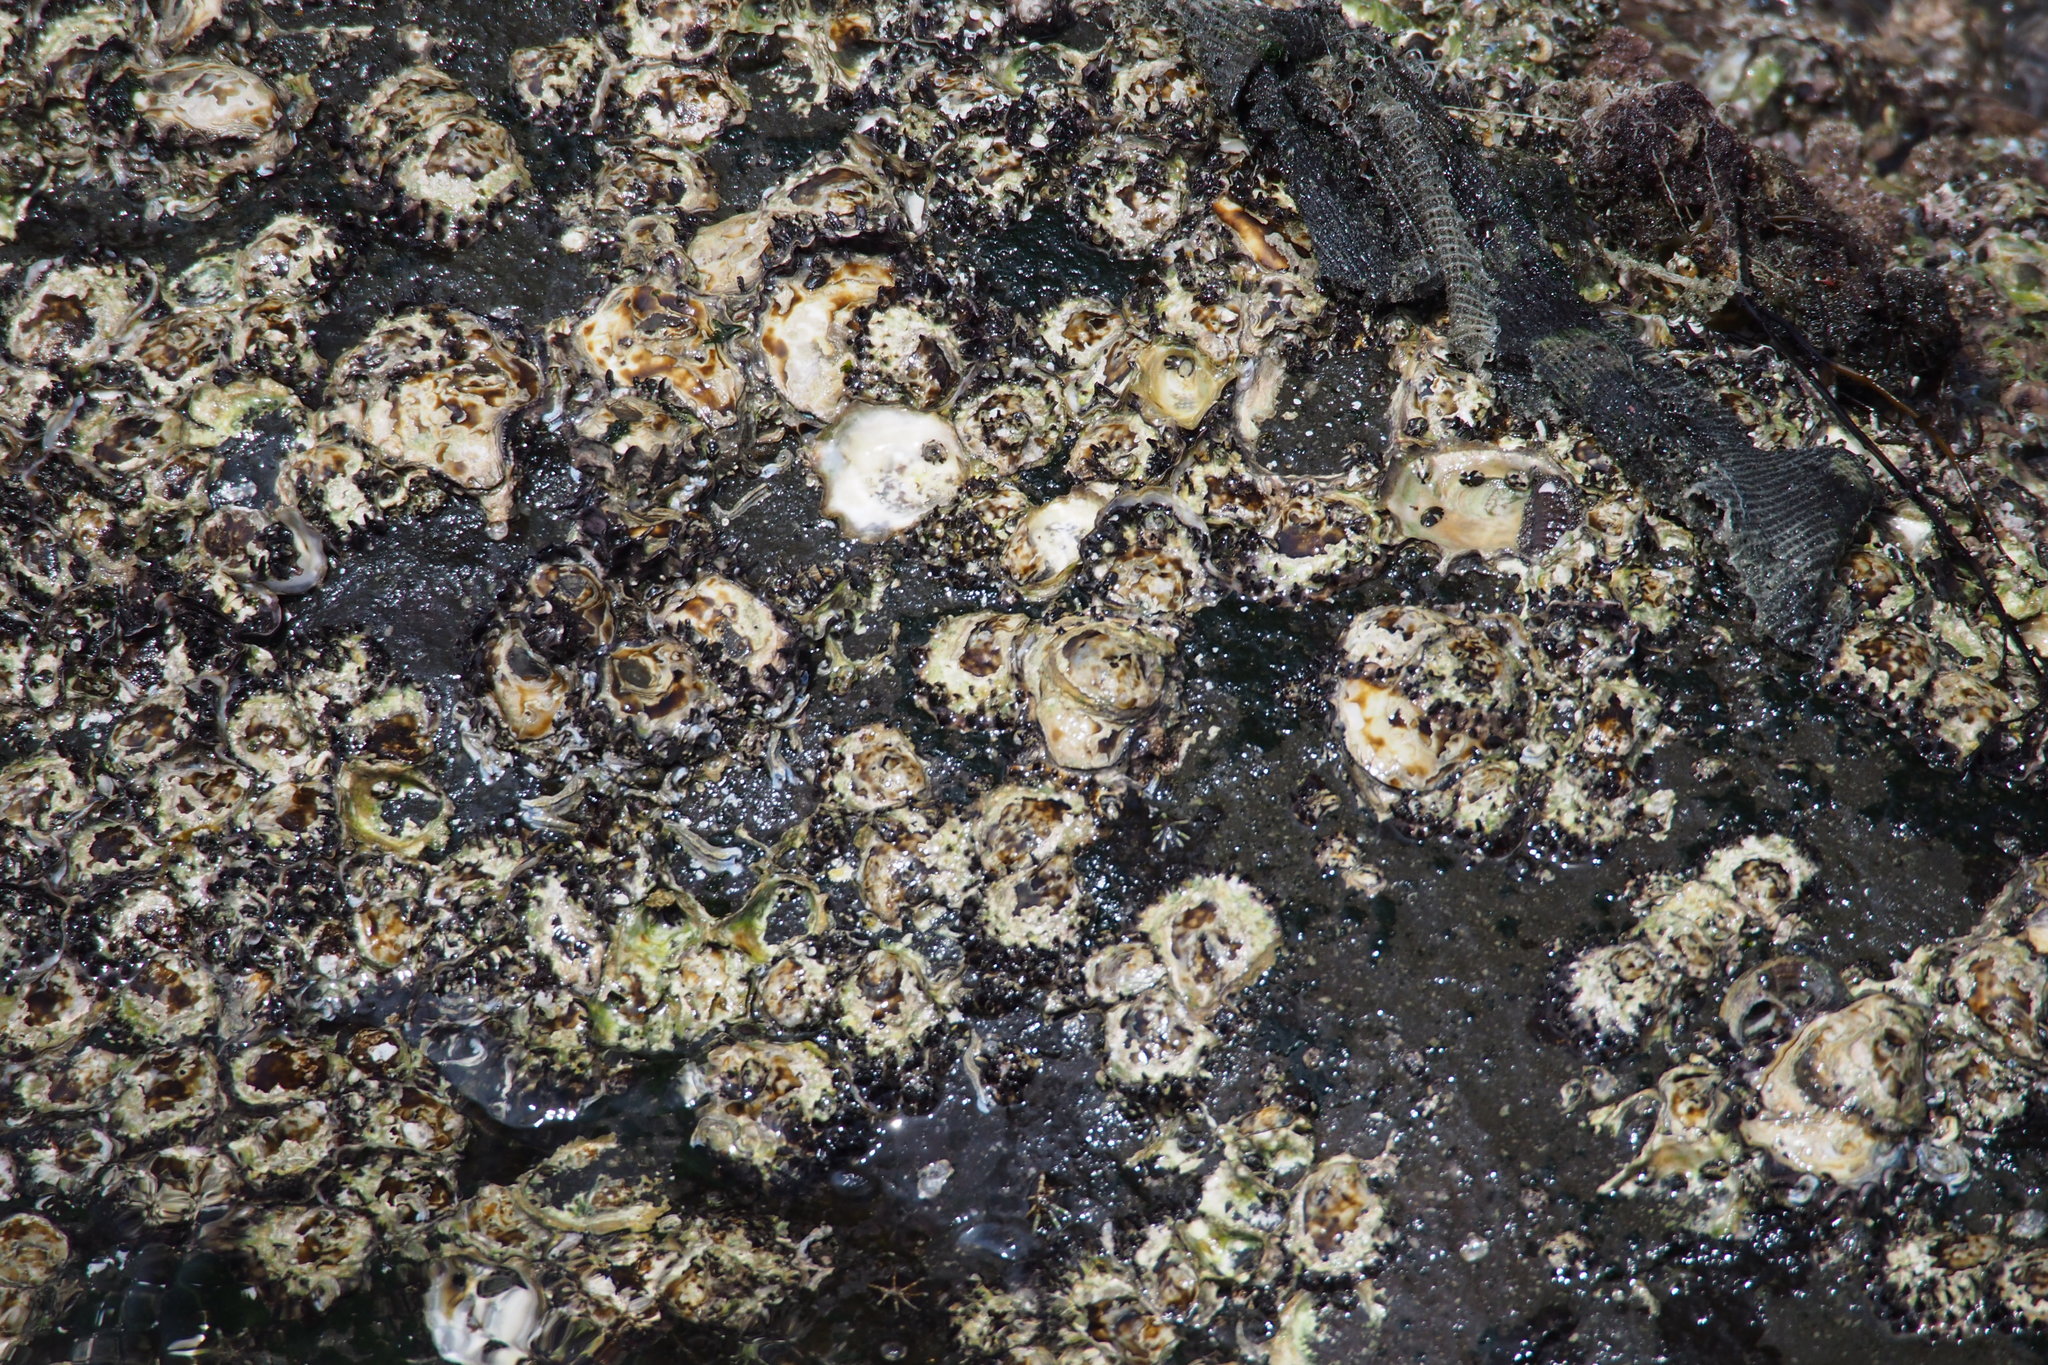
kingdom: Animalia
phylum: Mollusca
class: Bivalvia
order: Ostreida
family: Ostreidae
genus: Saccostrea
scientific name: Saccostrea kegaki
